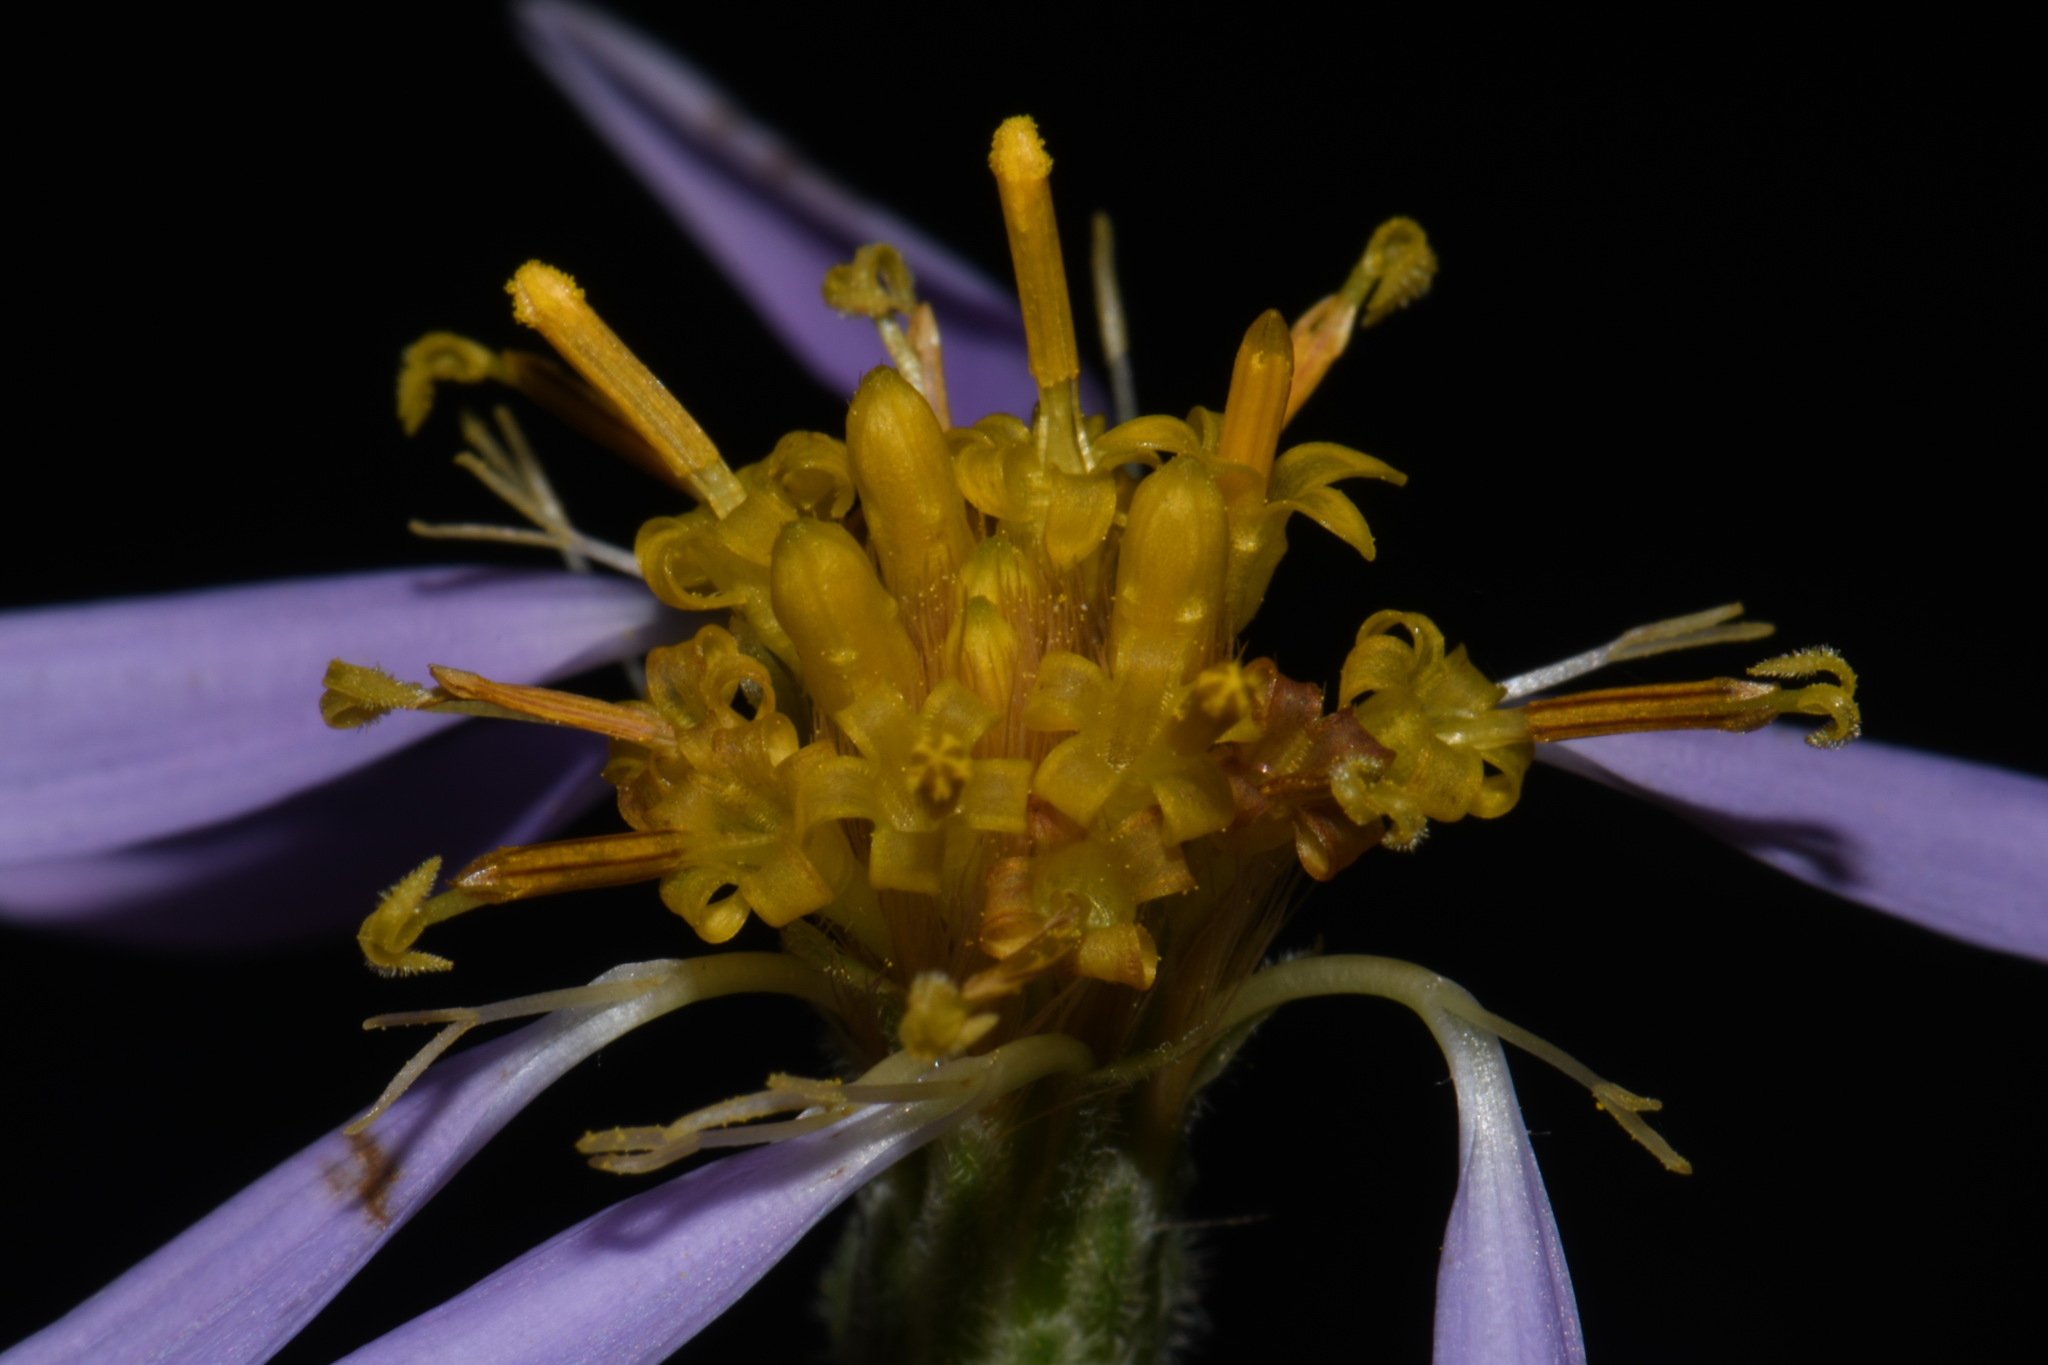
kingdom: Plantae
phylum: Tracheophyta
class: Magnoliopsida
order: Asterales
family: Asteraceae
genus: Eurybia
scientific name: Eurybia jonesiae
